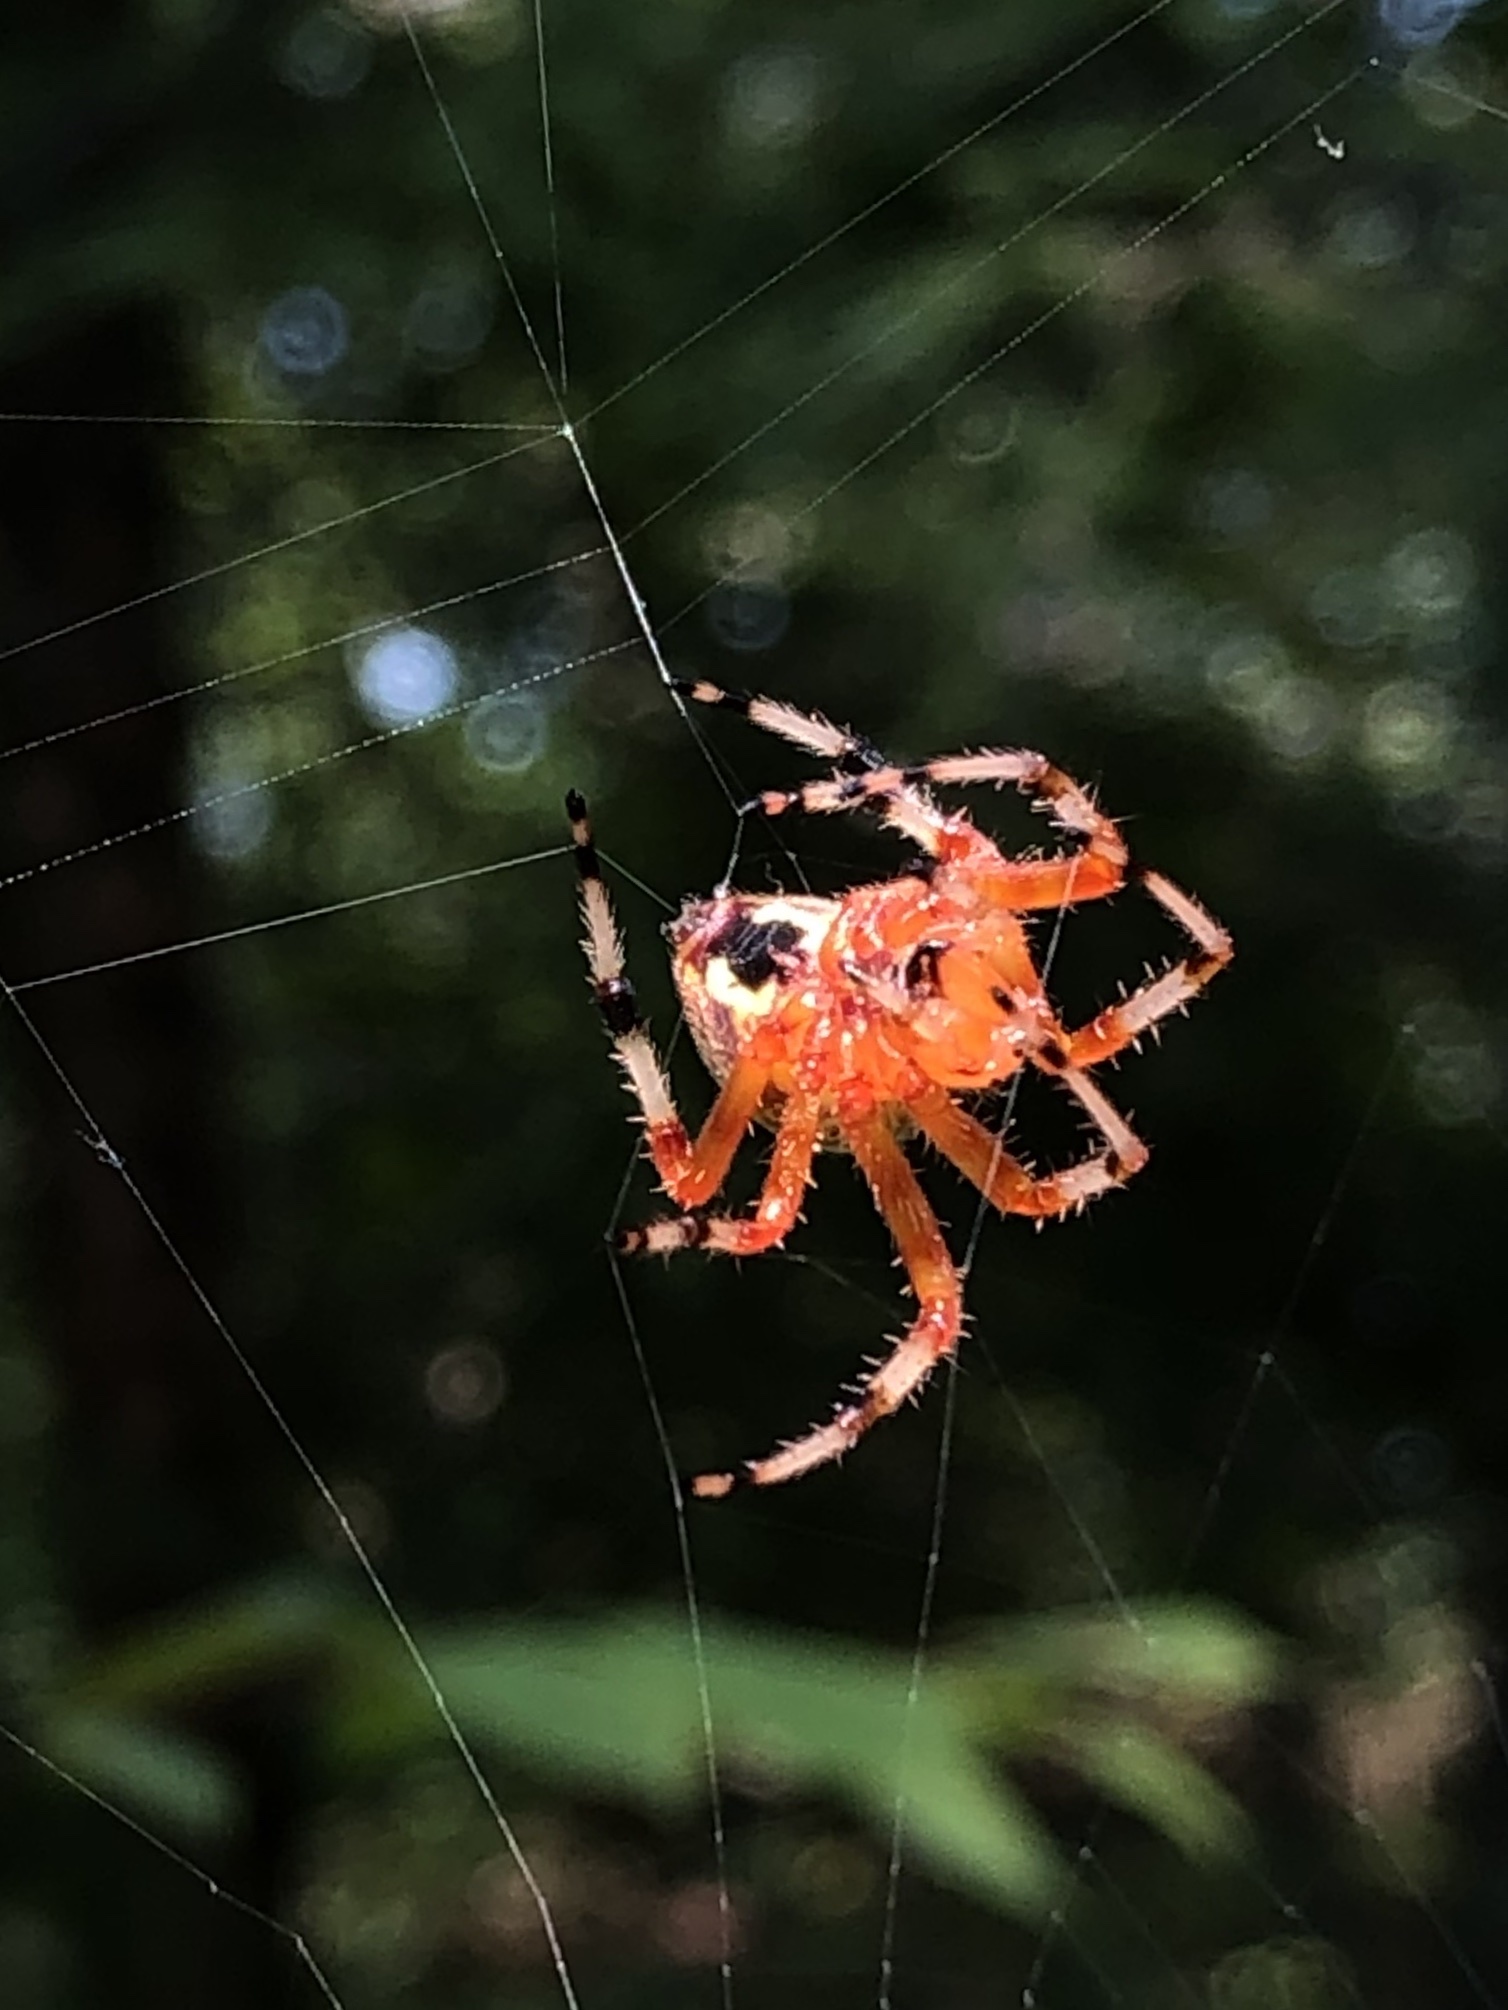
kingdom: Animalia
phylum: Arthropoda
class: Arachnida
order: Araneae
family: Araneidae
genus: Araneus
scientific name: Araneus marmoreus
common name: Marbled orbweaver
